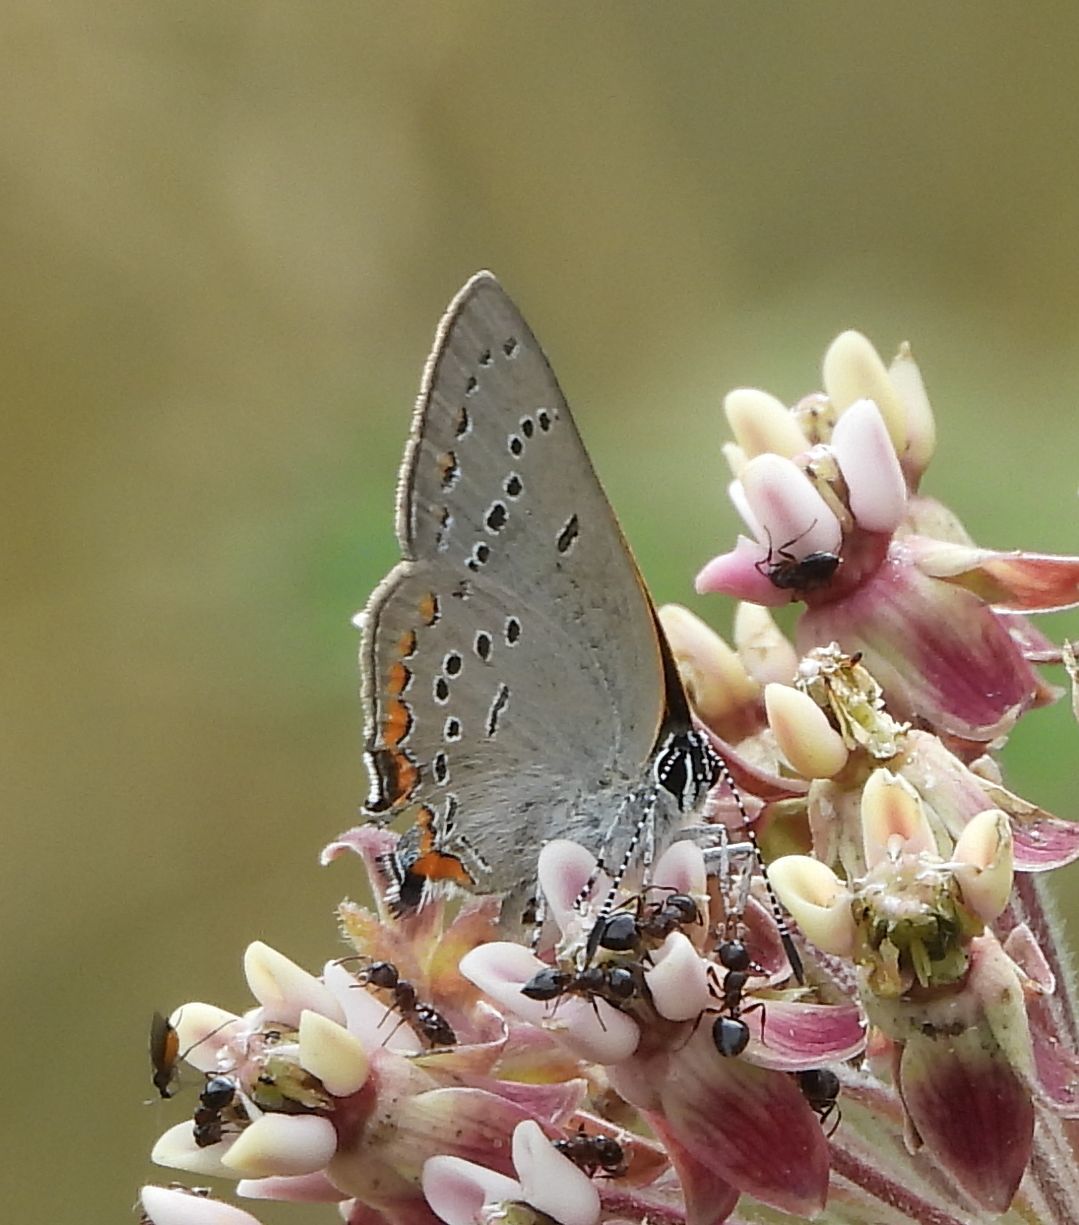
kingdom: Animalia
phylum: Arthropoda
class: Insecta
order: Lepidoptera
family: Lycaenidae
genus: Strymon
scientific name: Strymon acadica
